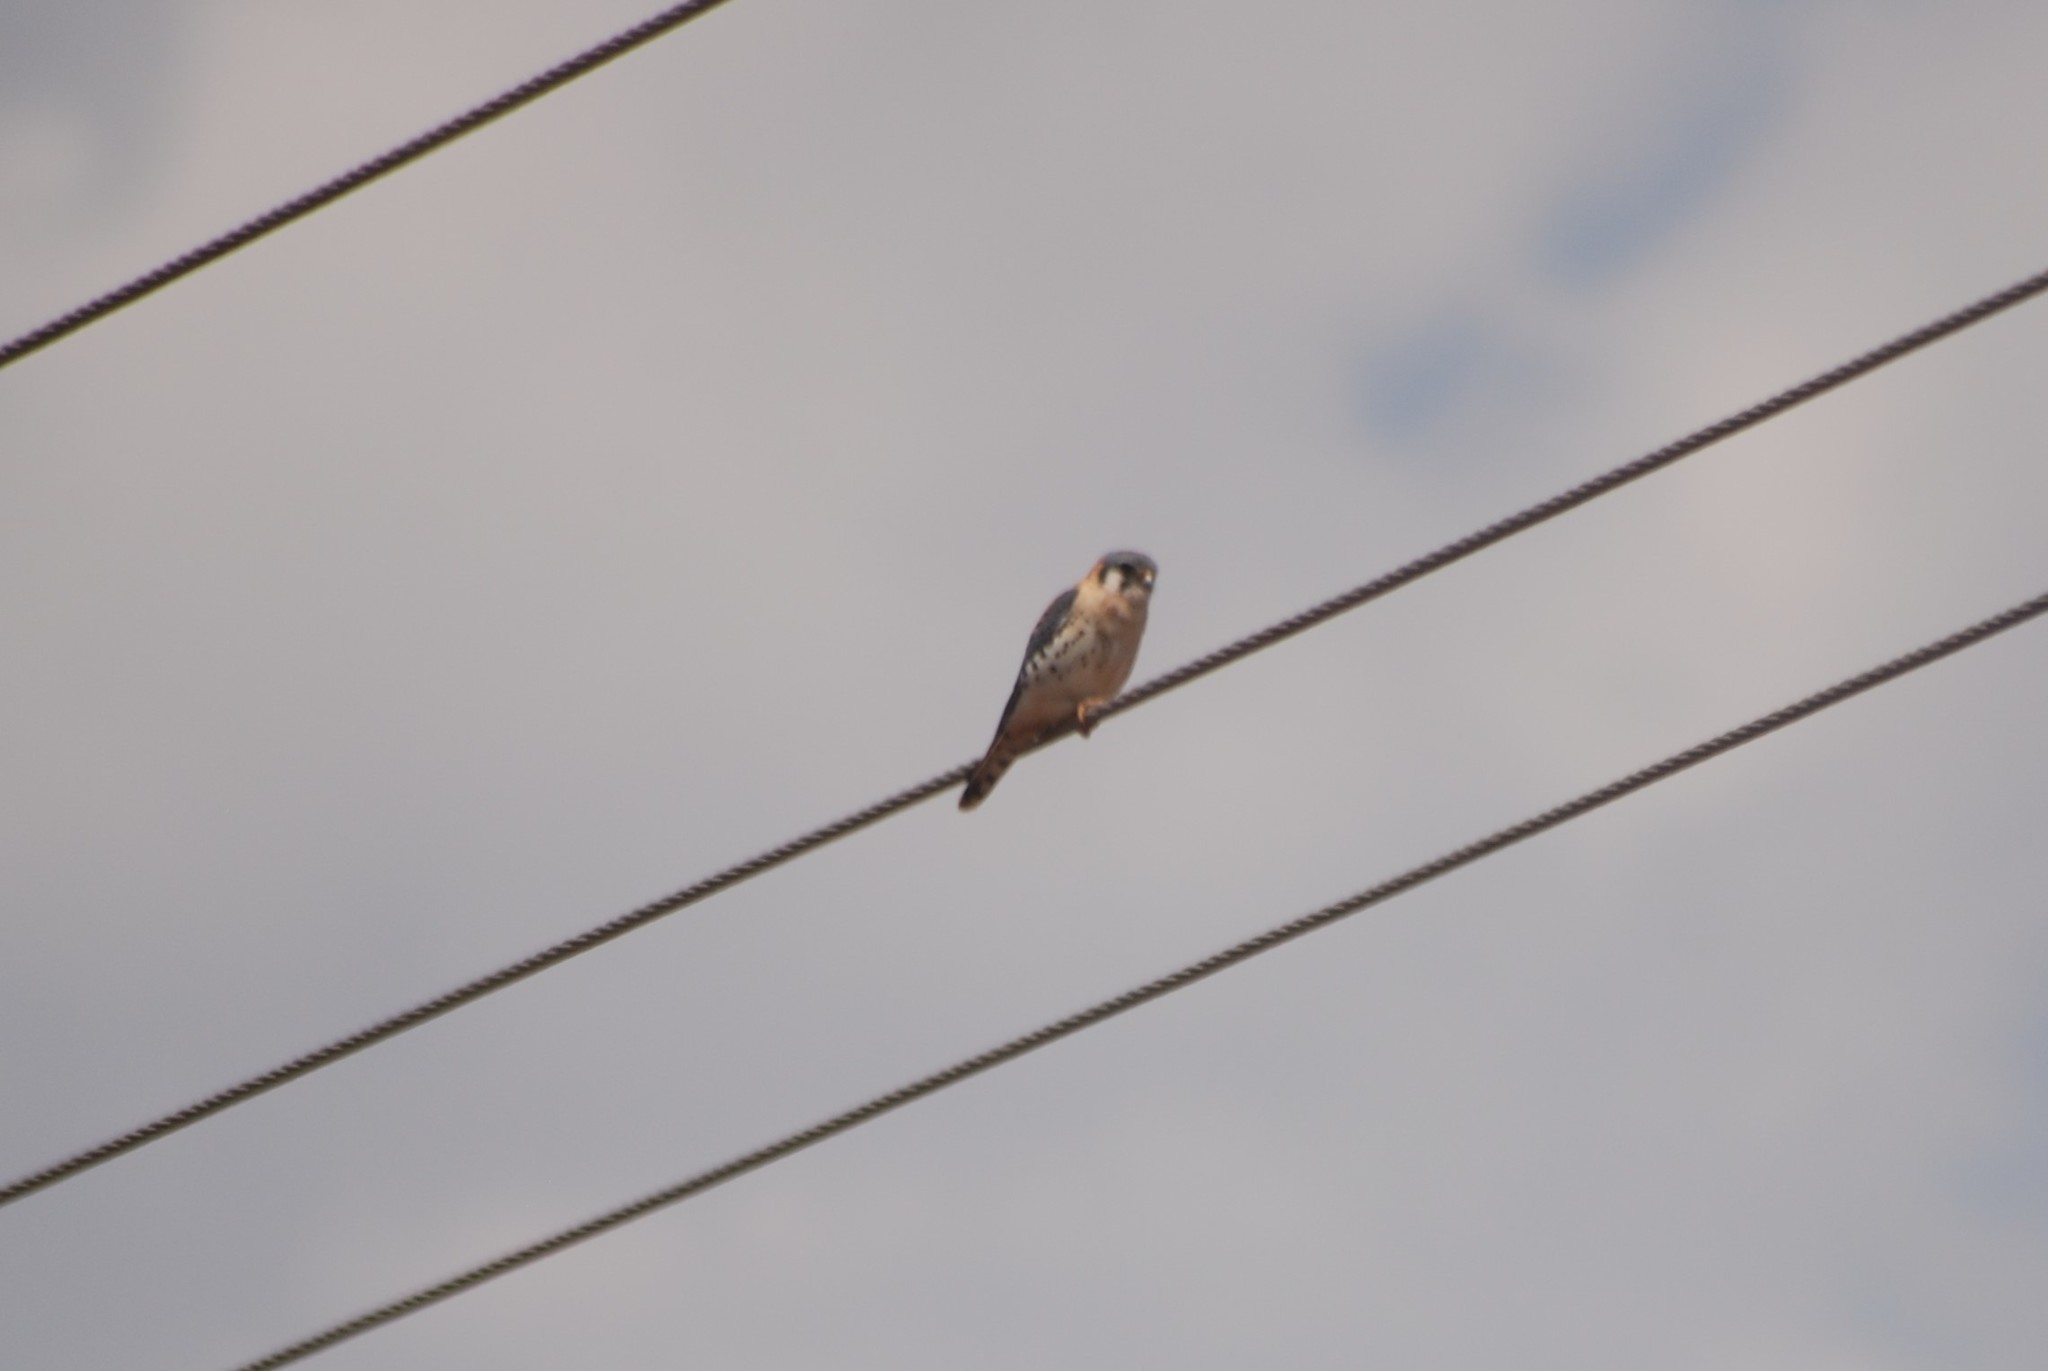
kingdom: Animalia
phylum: Chordata
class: Aves
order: Falconiformes
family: Falconidae
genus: Falco
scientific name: Falco sparverius
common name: American kestrel
